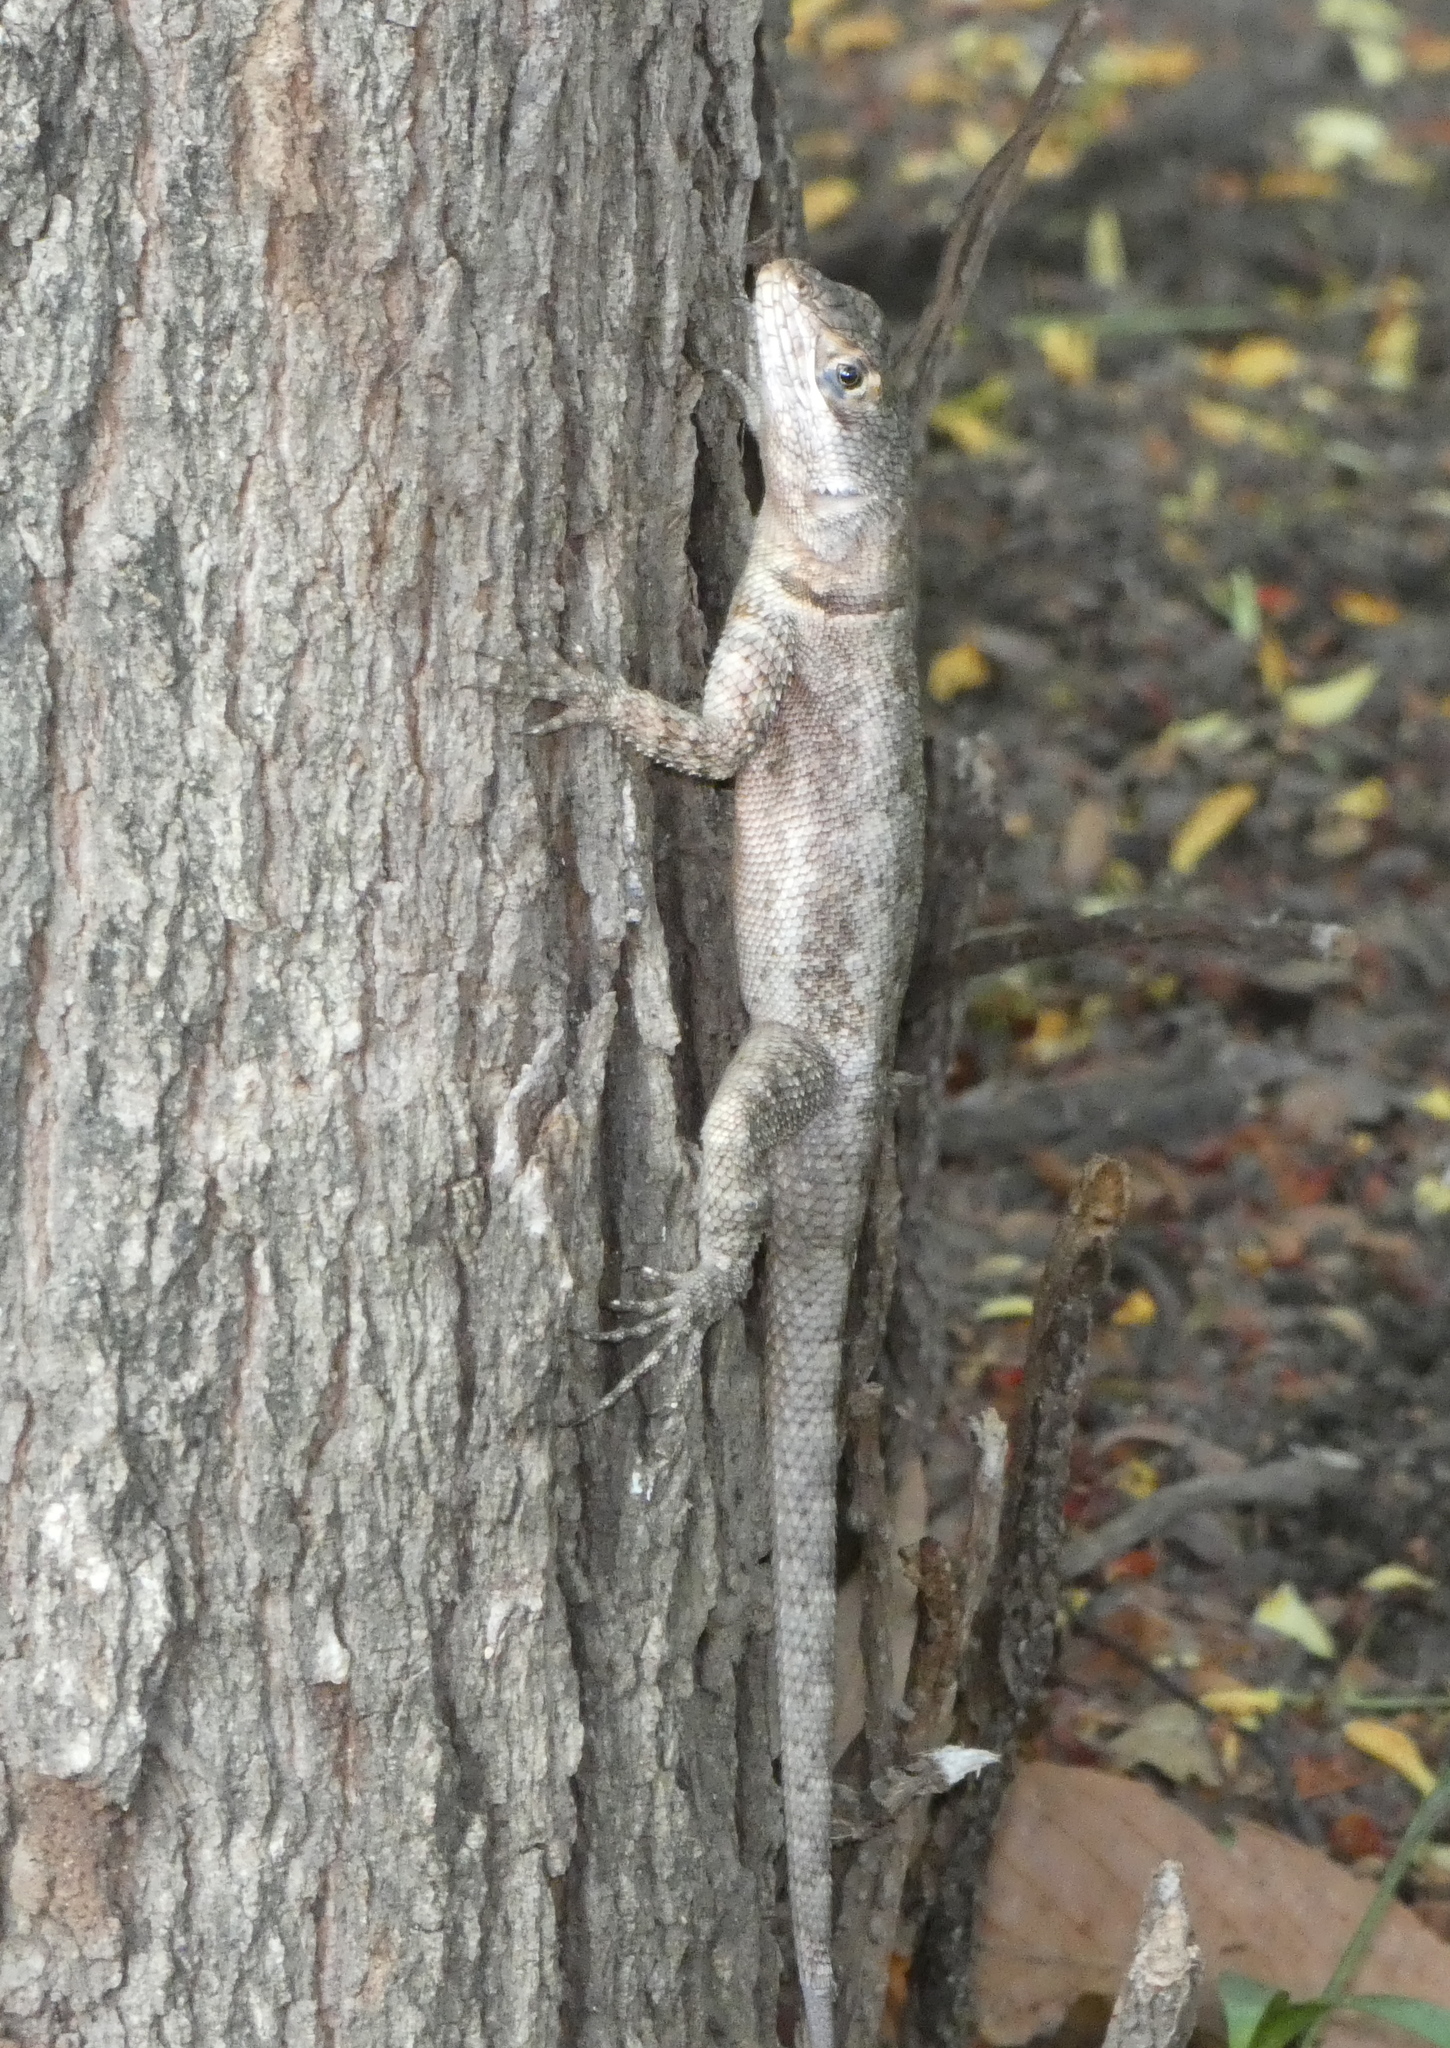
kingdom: Animalia
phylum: Chordata
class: Squamata
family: Tropiduridae
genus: Tropidurus
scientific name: Tropidurus hispidus
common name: Peters' lava lizard
